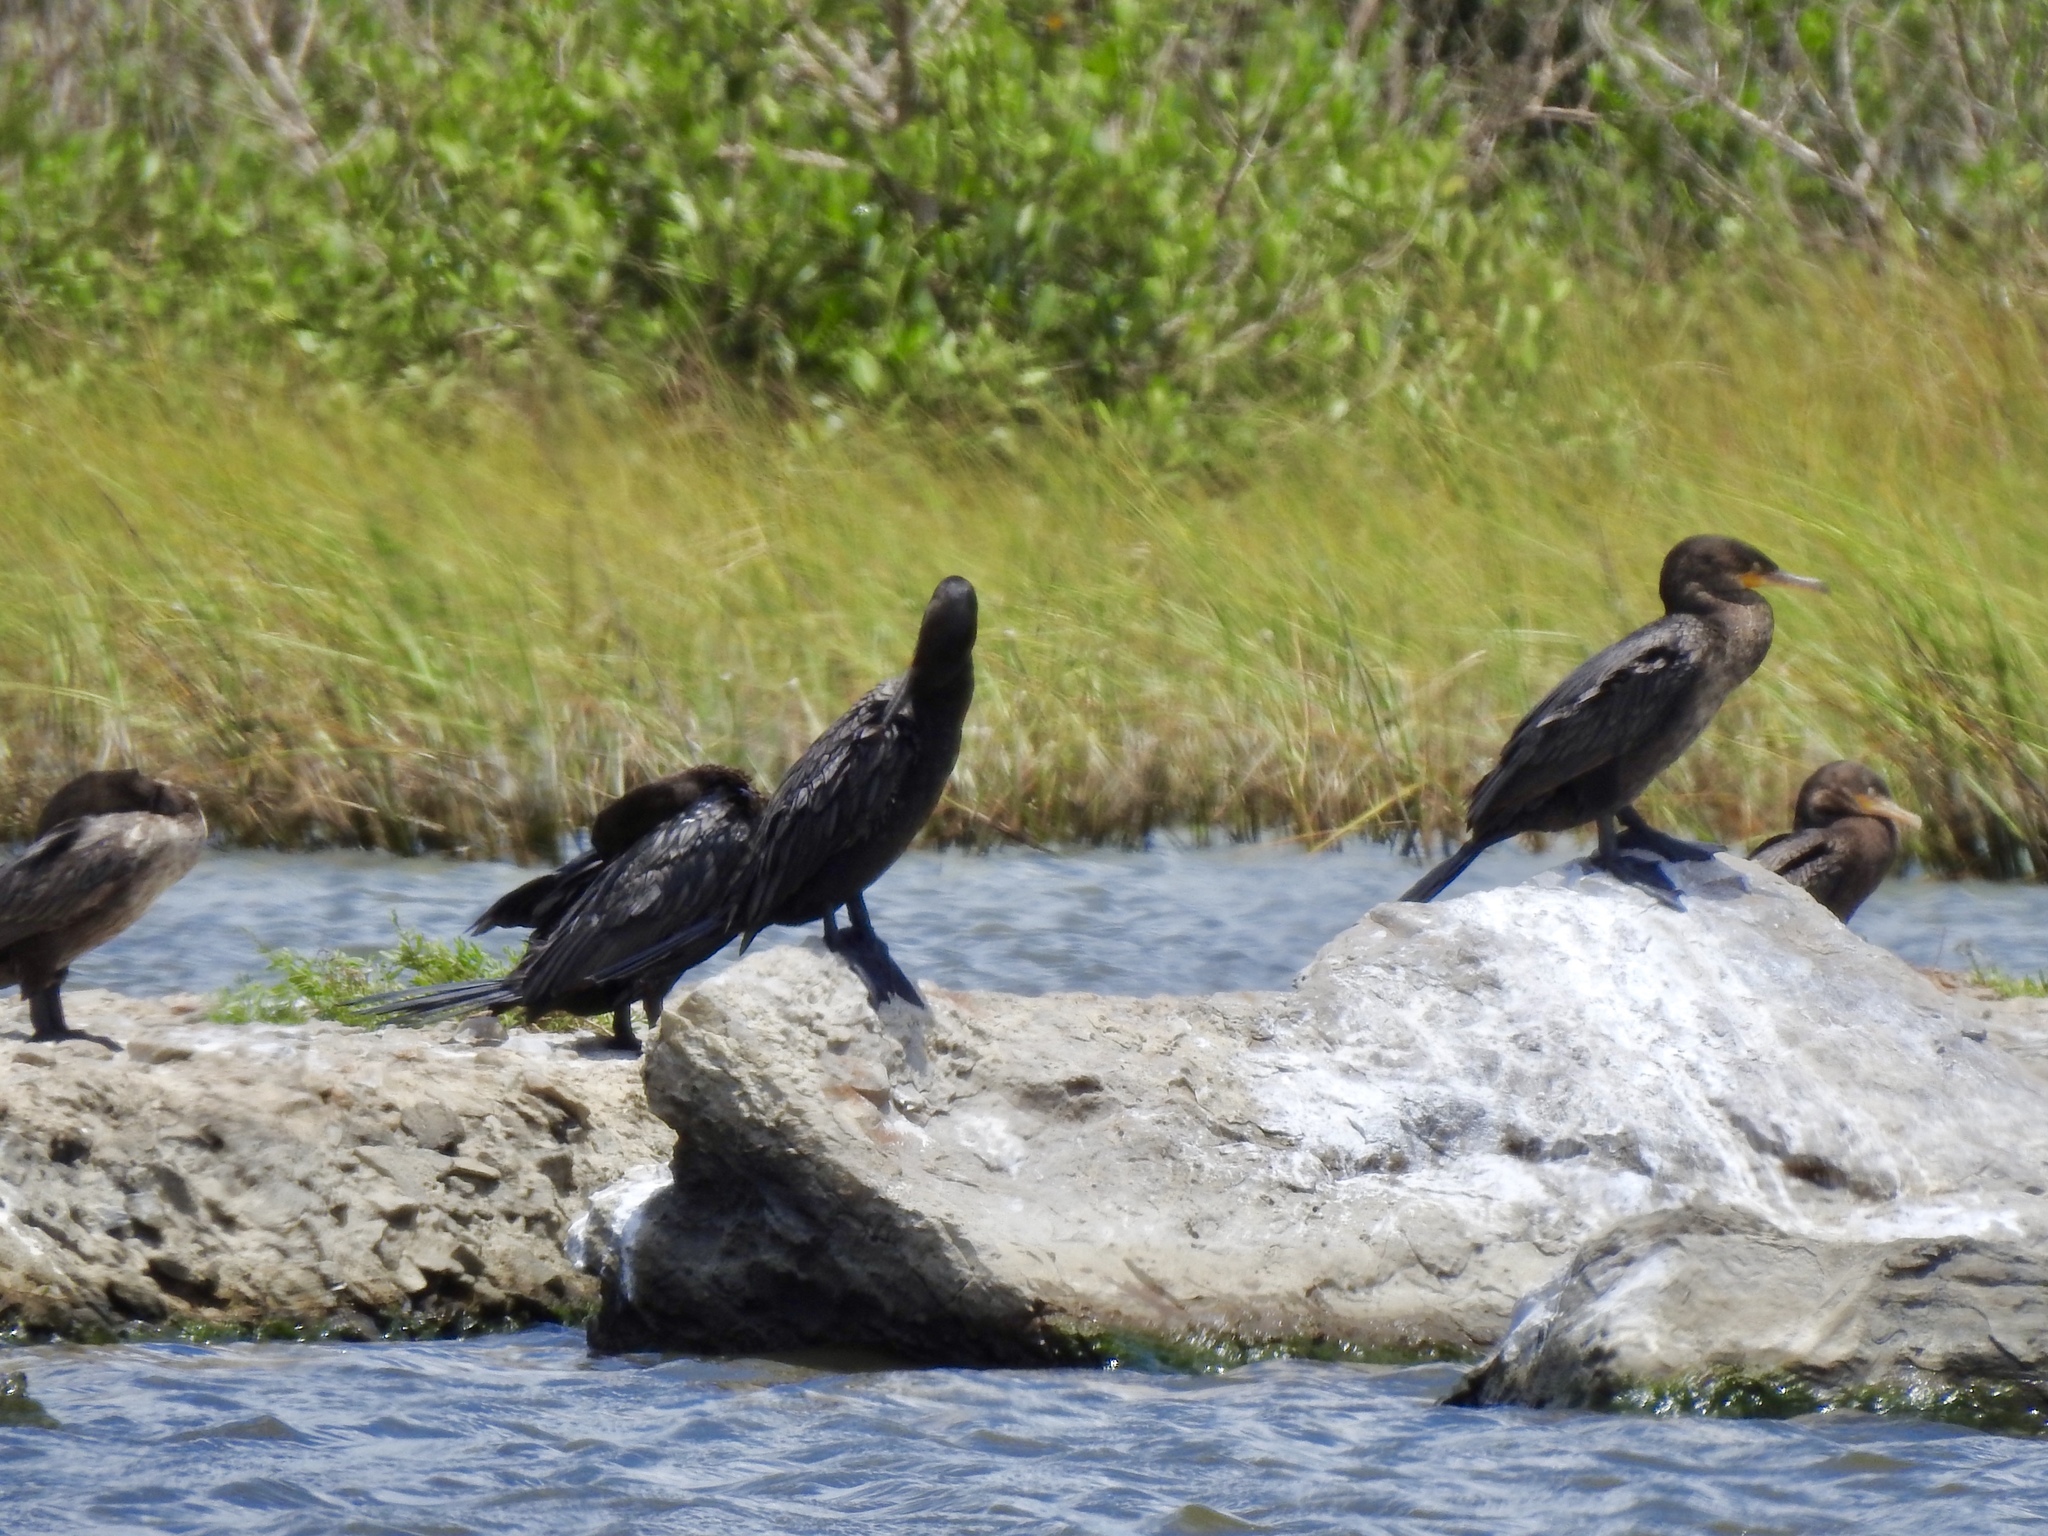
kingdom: Animalia
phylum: Chordata
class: Aves
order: Suliformes
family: Phalacrocoracidae
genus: Phalacrocorax
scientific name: Phalacrocorax brasilianus
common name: Neotropic cormorant
